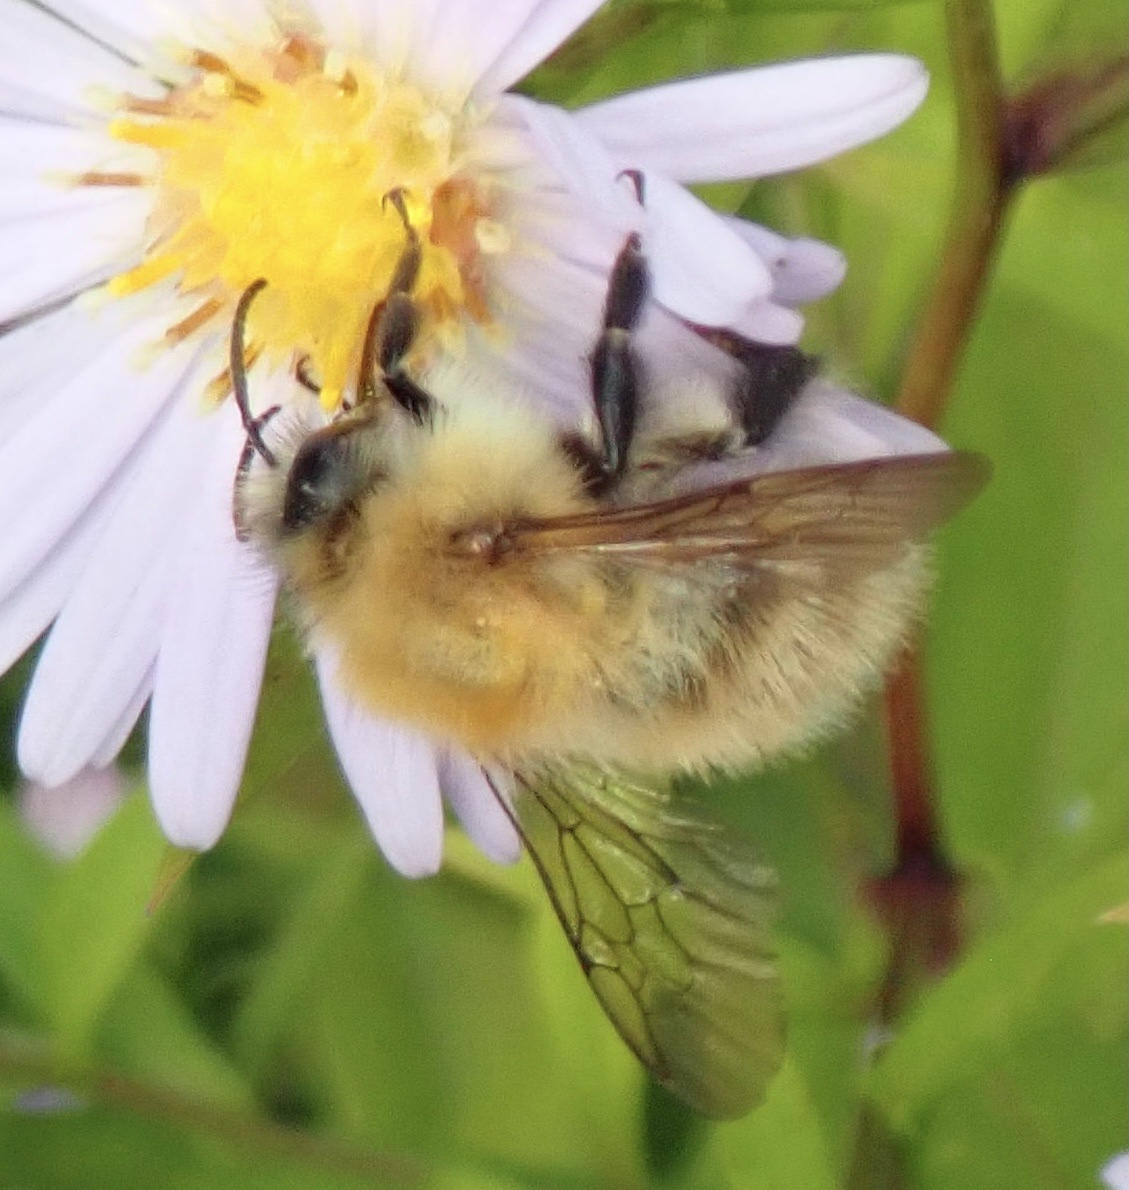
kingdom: Animalia
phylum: Arthropoda
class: Insecta
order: Hymenoptera
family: Apidae
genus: Bombus
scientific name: Bombus pascuorum
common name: Common carder bee
